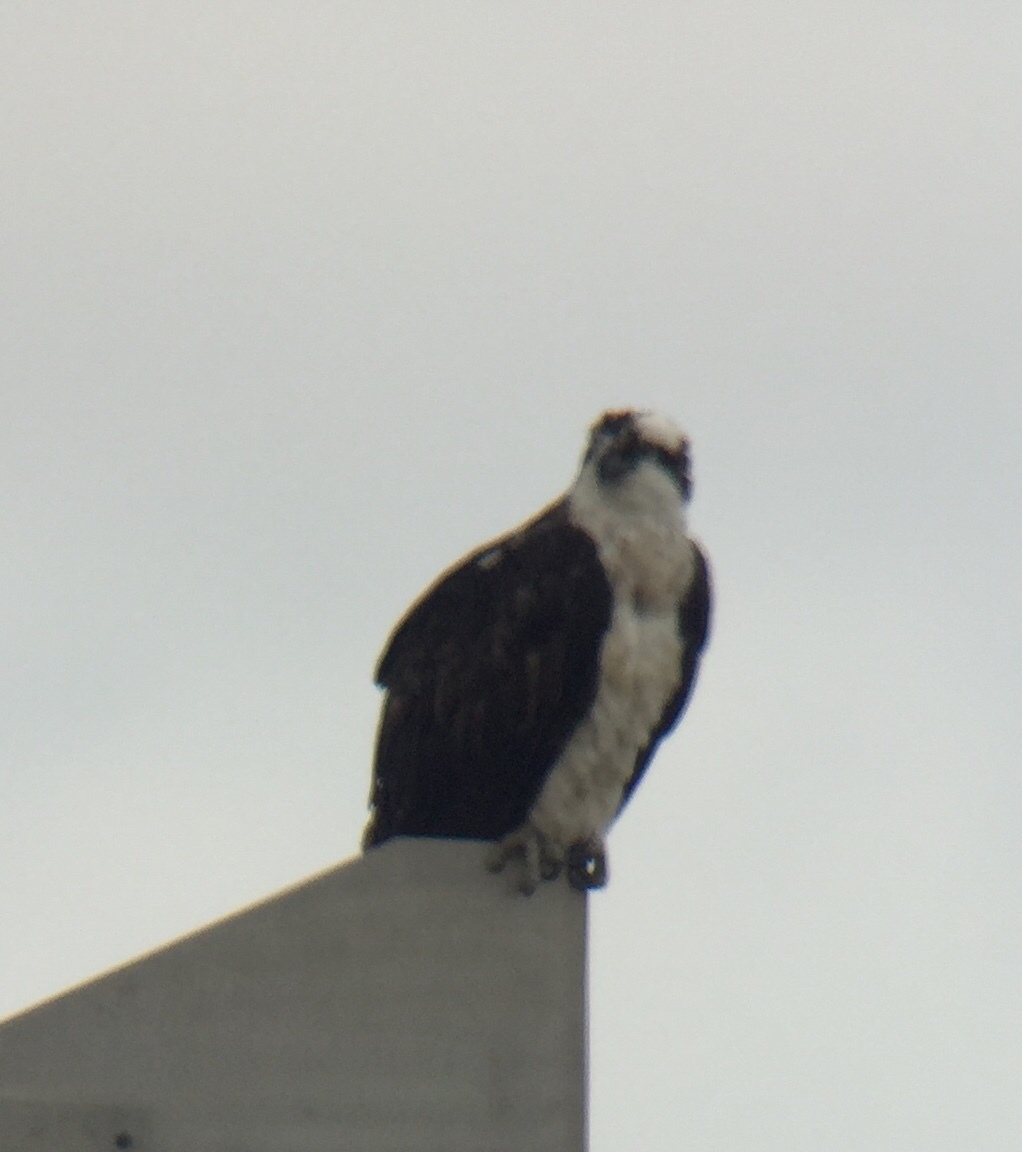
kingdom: Animalia
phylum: Chordata
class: Aves
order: Accipitriformes
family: Pandionidae
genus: Pandion
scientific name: Pandion haliaetus
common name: Osprey
